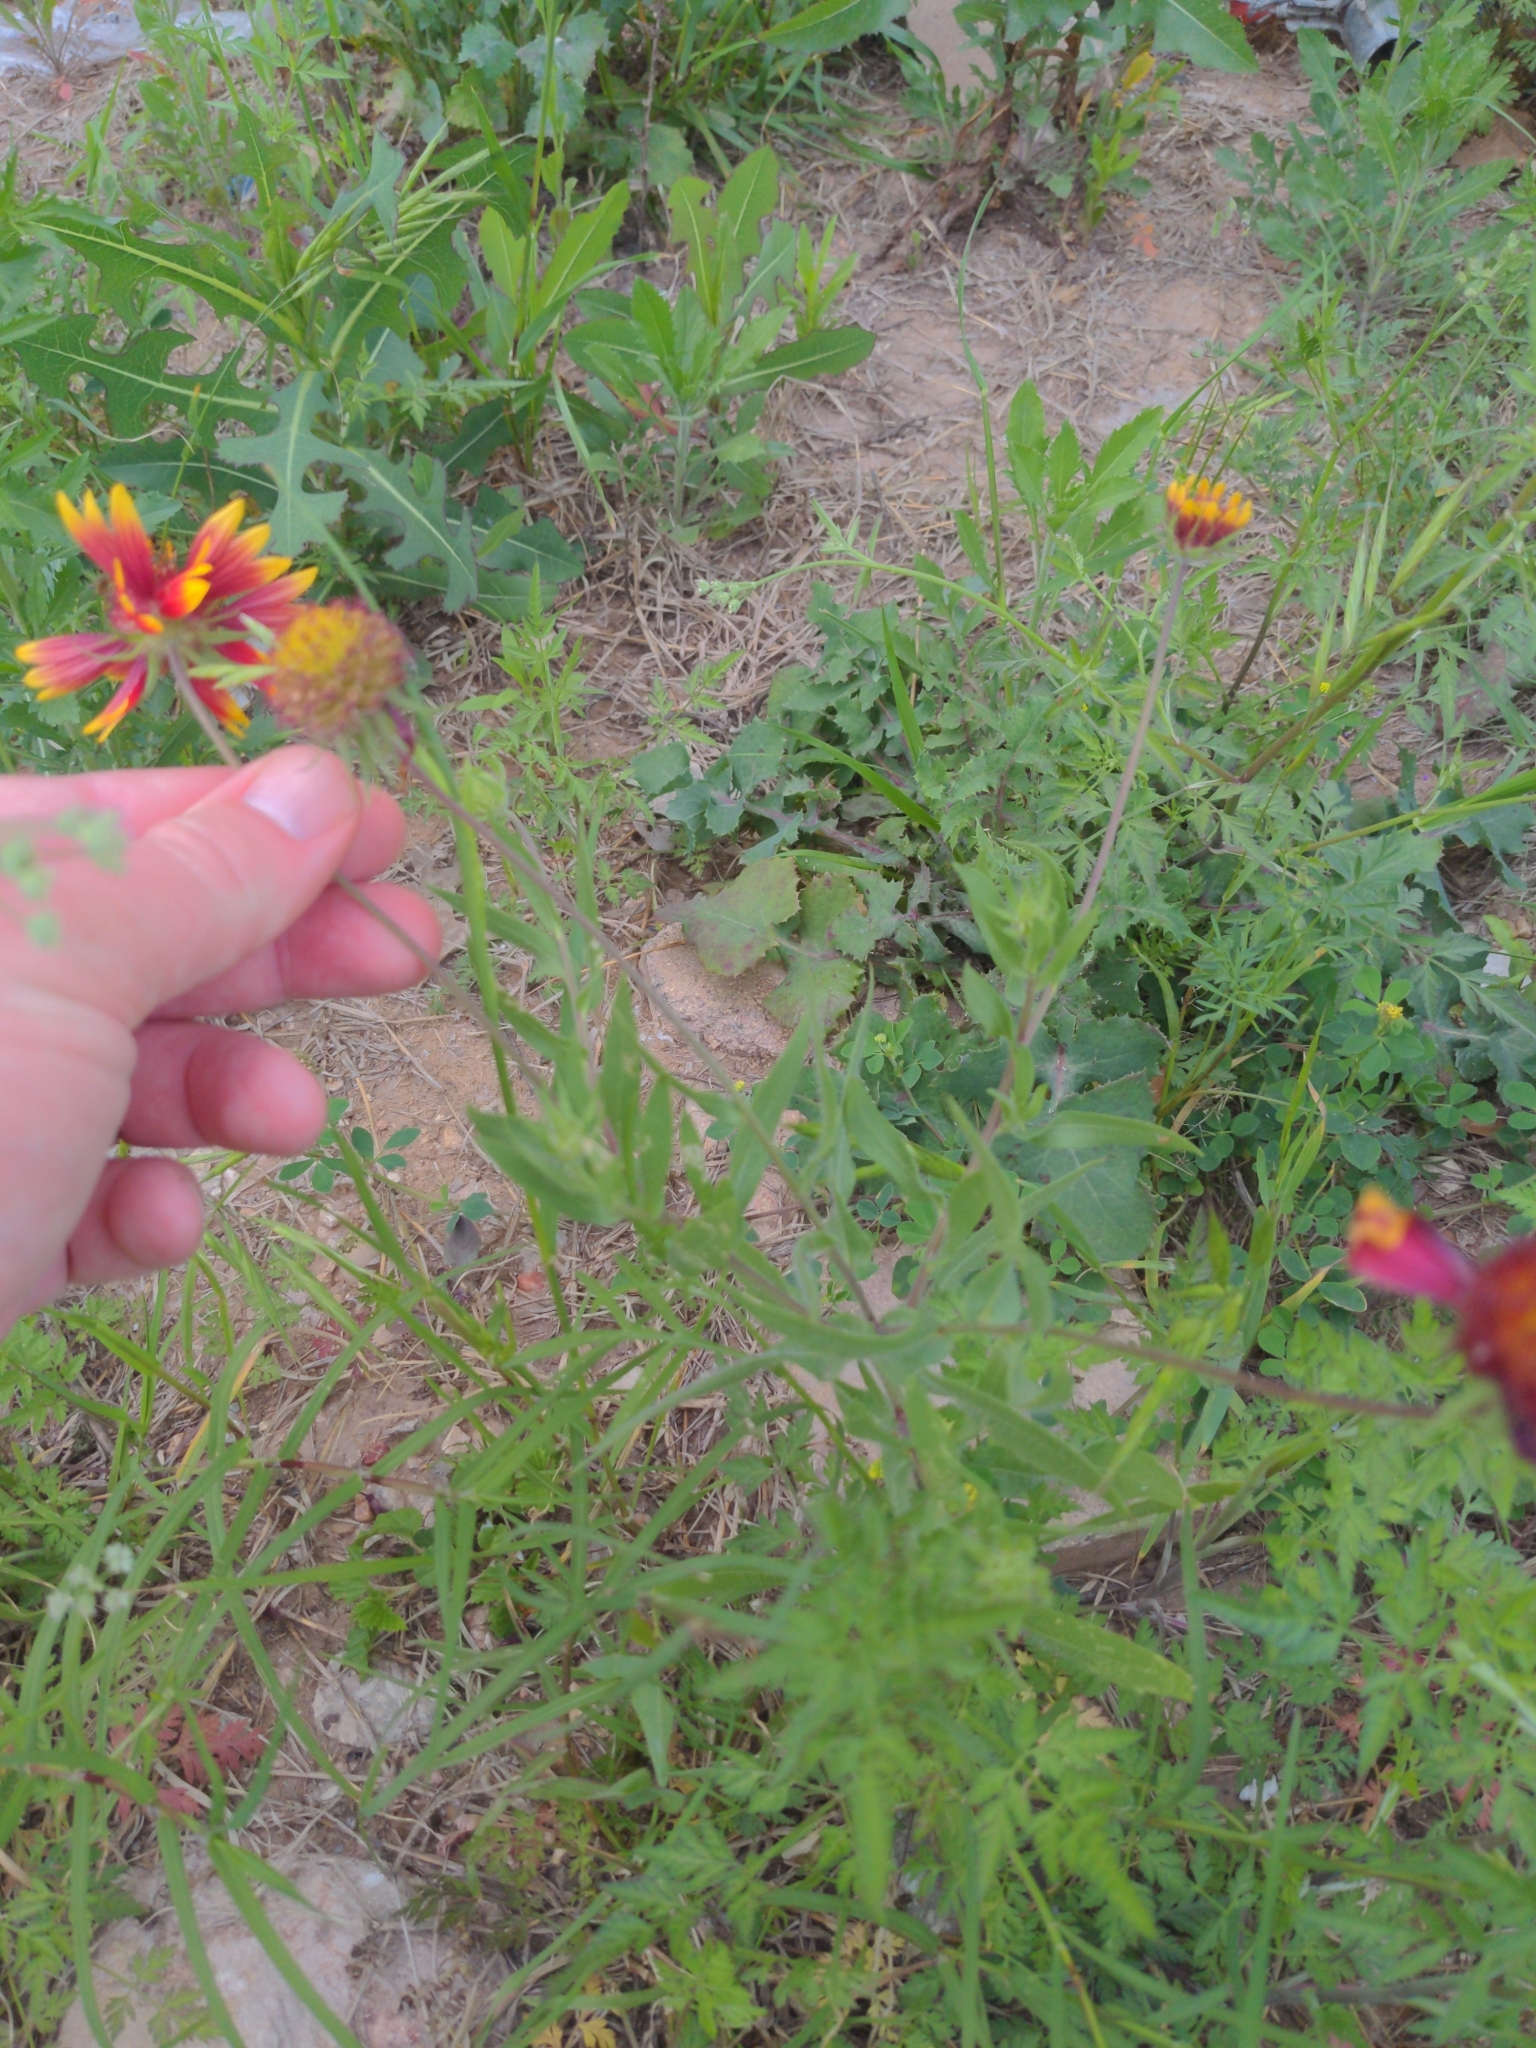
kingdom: Plantae
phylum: Tracheophyta
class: Magnoliopsida
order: Asterales
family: Asteraceae
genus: Gaillardia
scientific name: Gaillardia pulchella
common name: Firewheel
